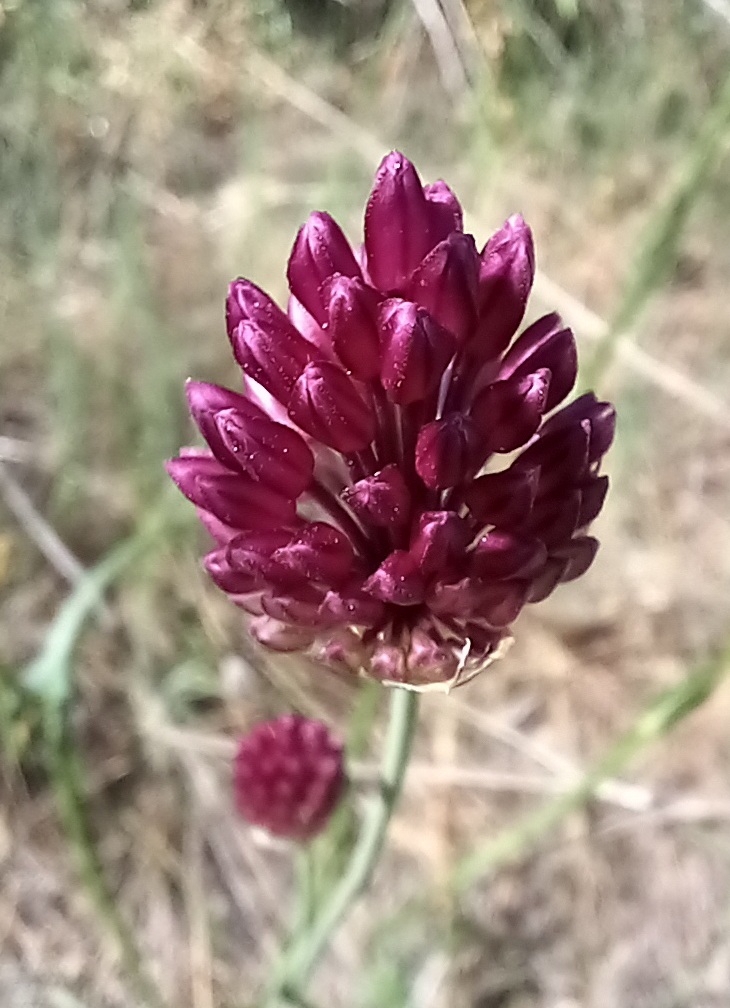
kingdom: Plantae
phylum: Tracheophyta
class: Liliopsida
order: Asparagales
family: Amaryllidaceae
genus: Allium
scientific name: Allium sphaerocephalon
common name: Round-headed leek
